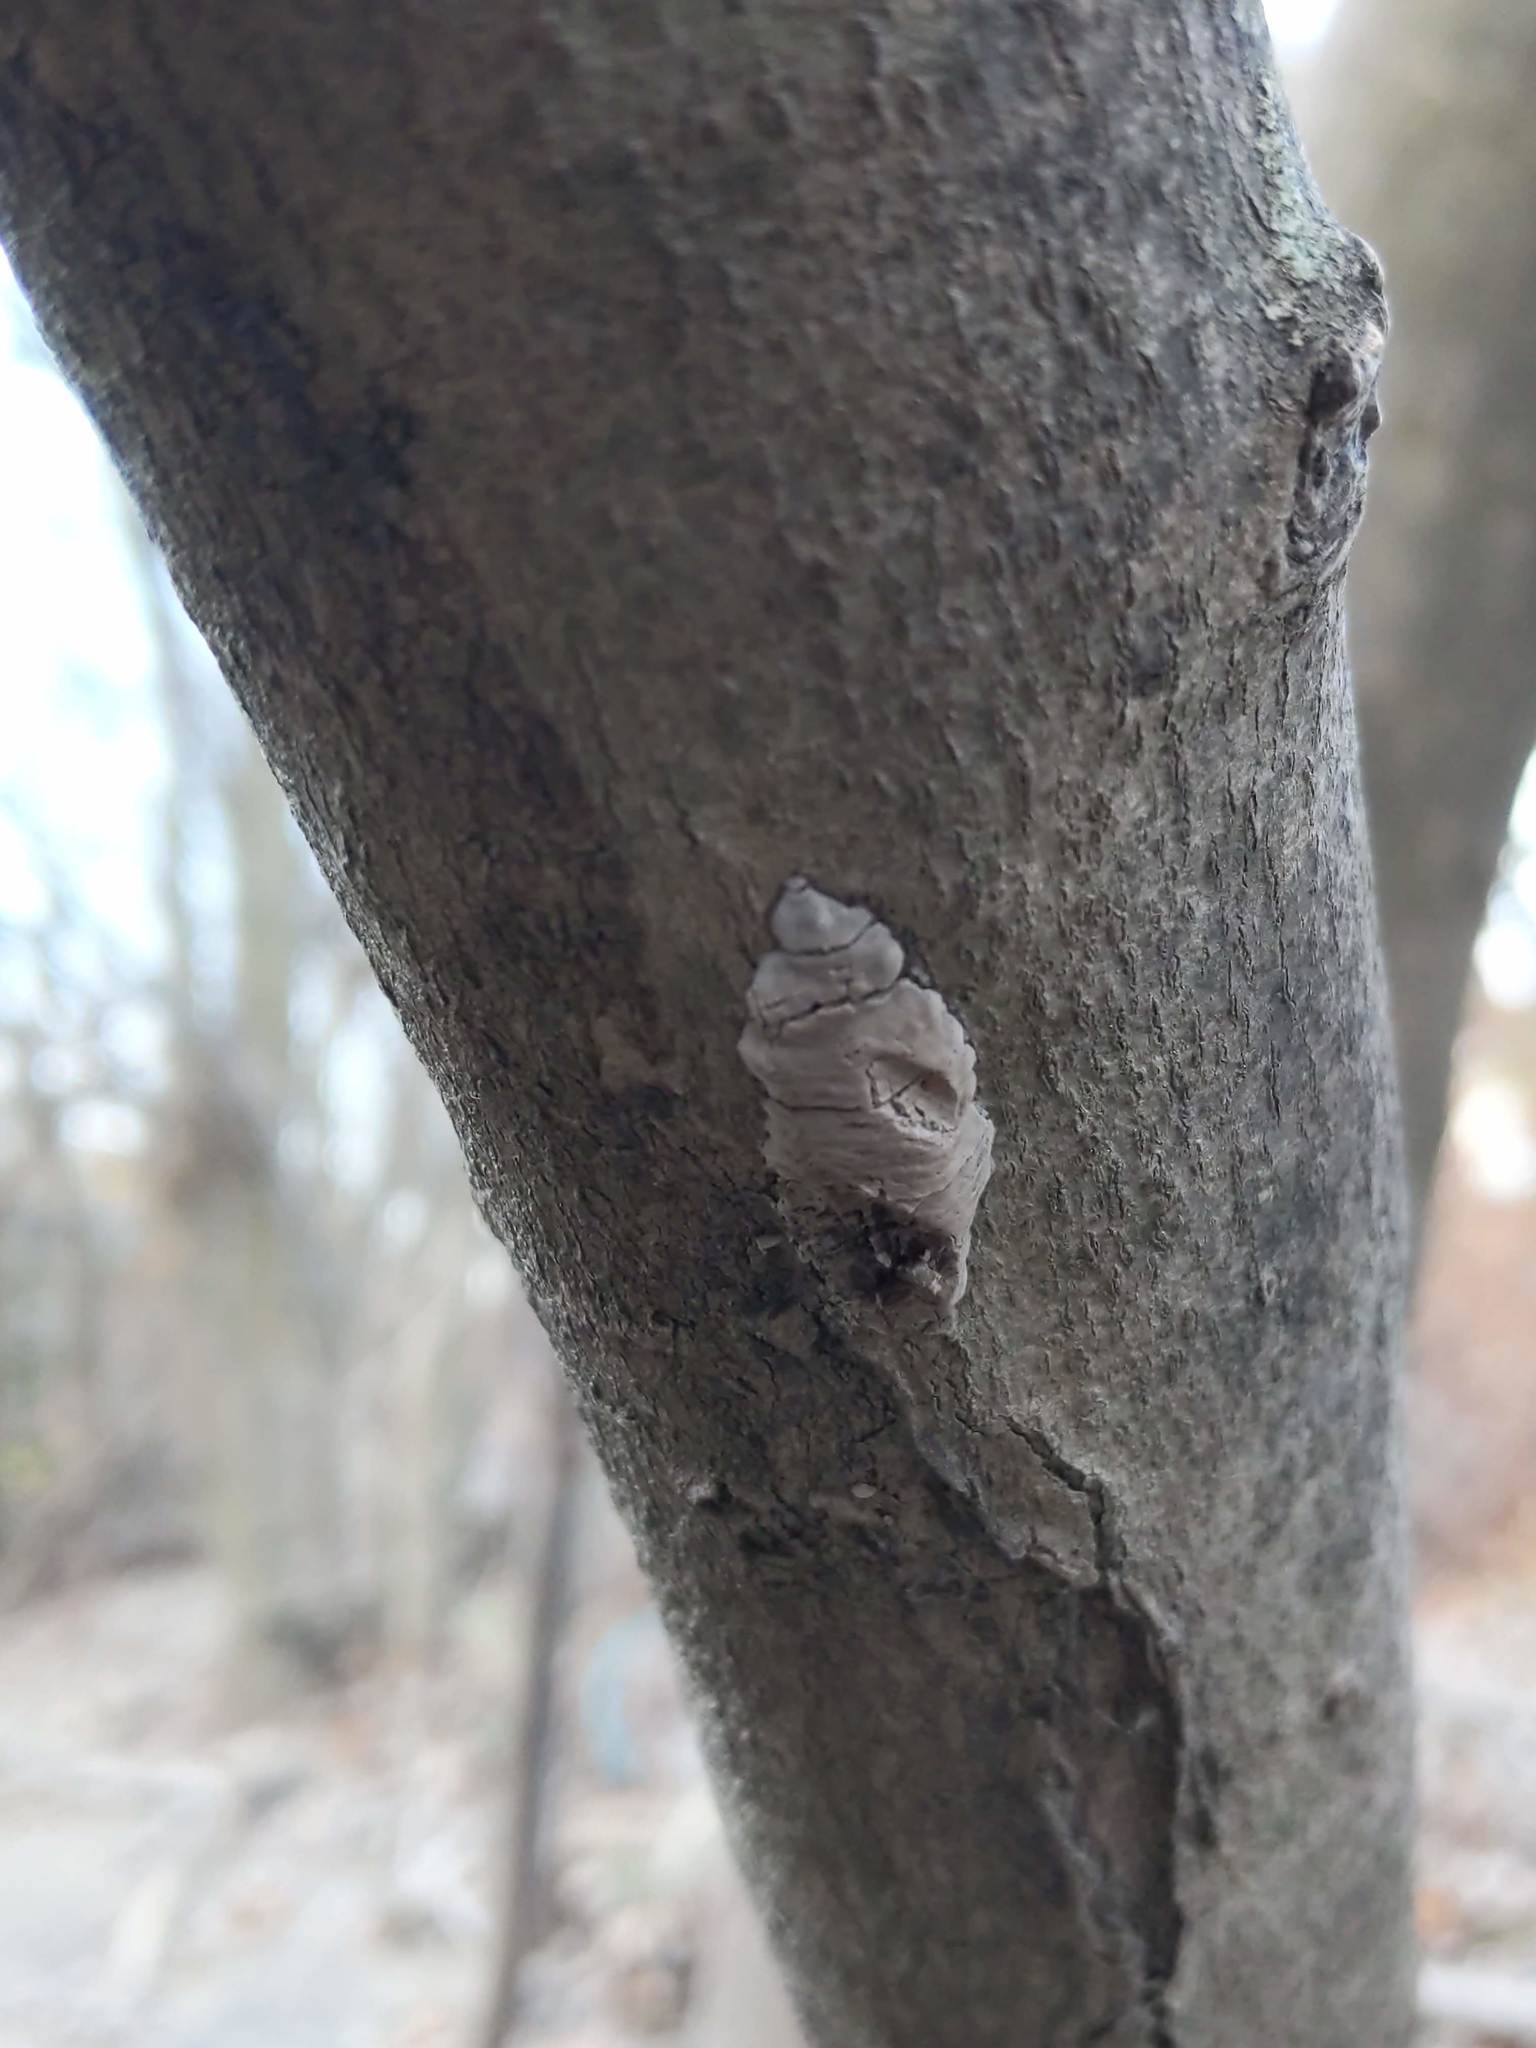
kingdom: Animalia
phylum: Arthropoda
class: Insecta
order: Hemiptera
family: Fulgoridae
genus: Lycorma
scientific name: Lycorma delicatula
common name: Spotted lanternfly
